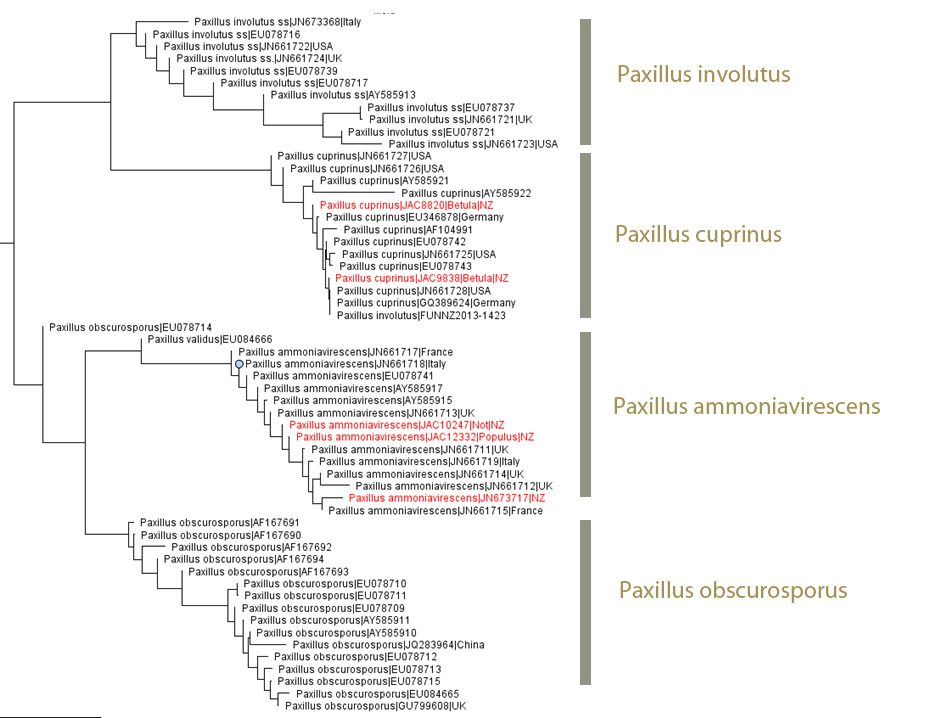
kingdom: Fungi
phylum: Basidiomycota
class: Agaricomycetes
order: Boletales
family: Paxillaceae
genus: Paxillus
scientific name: Paxillus cuprinus
